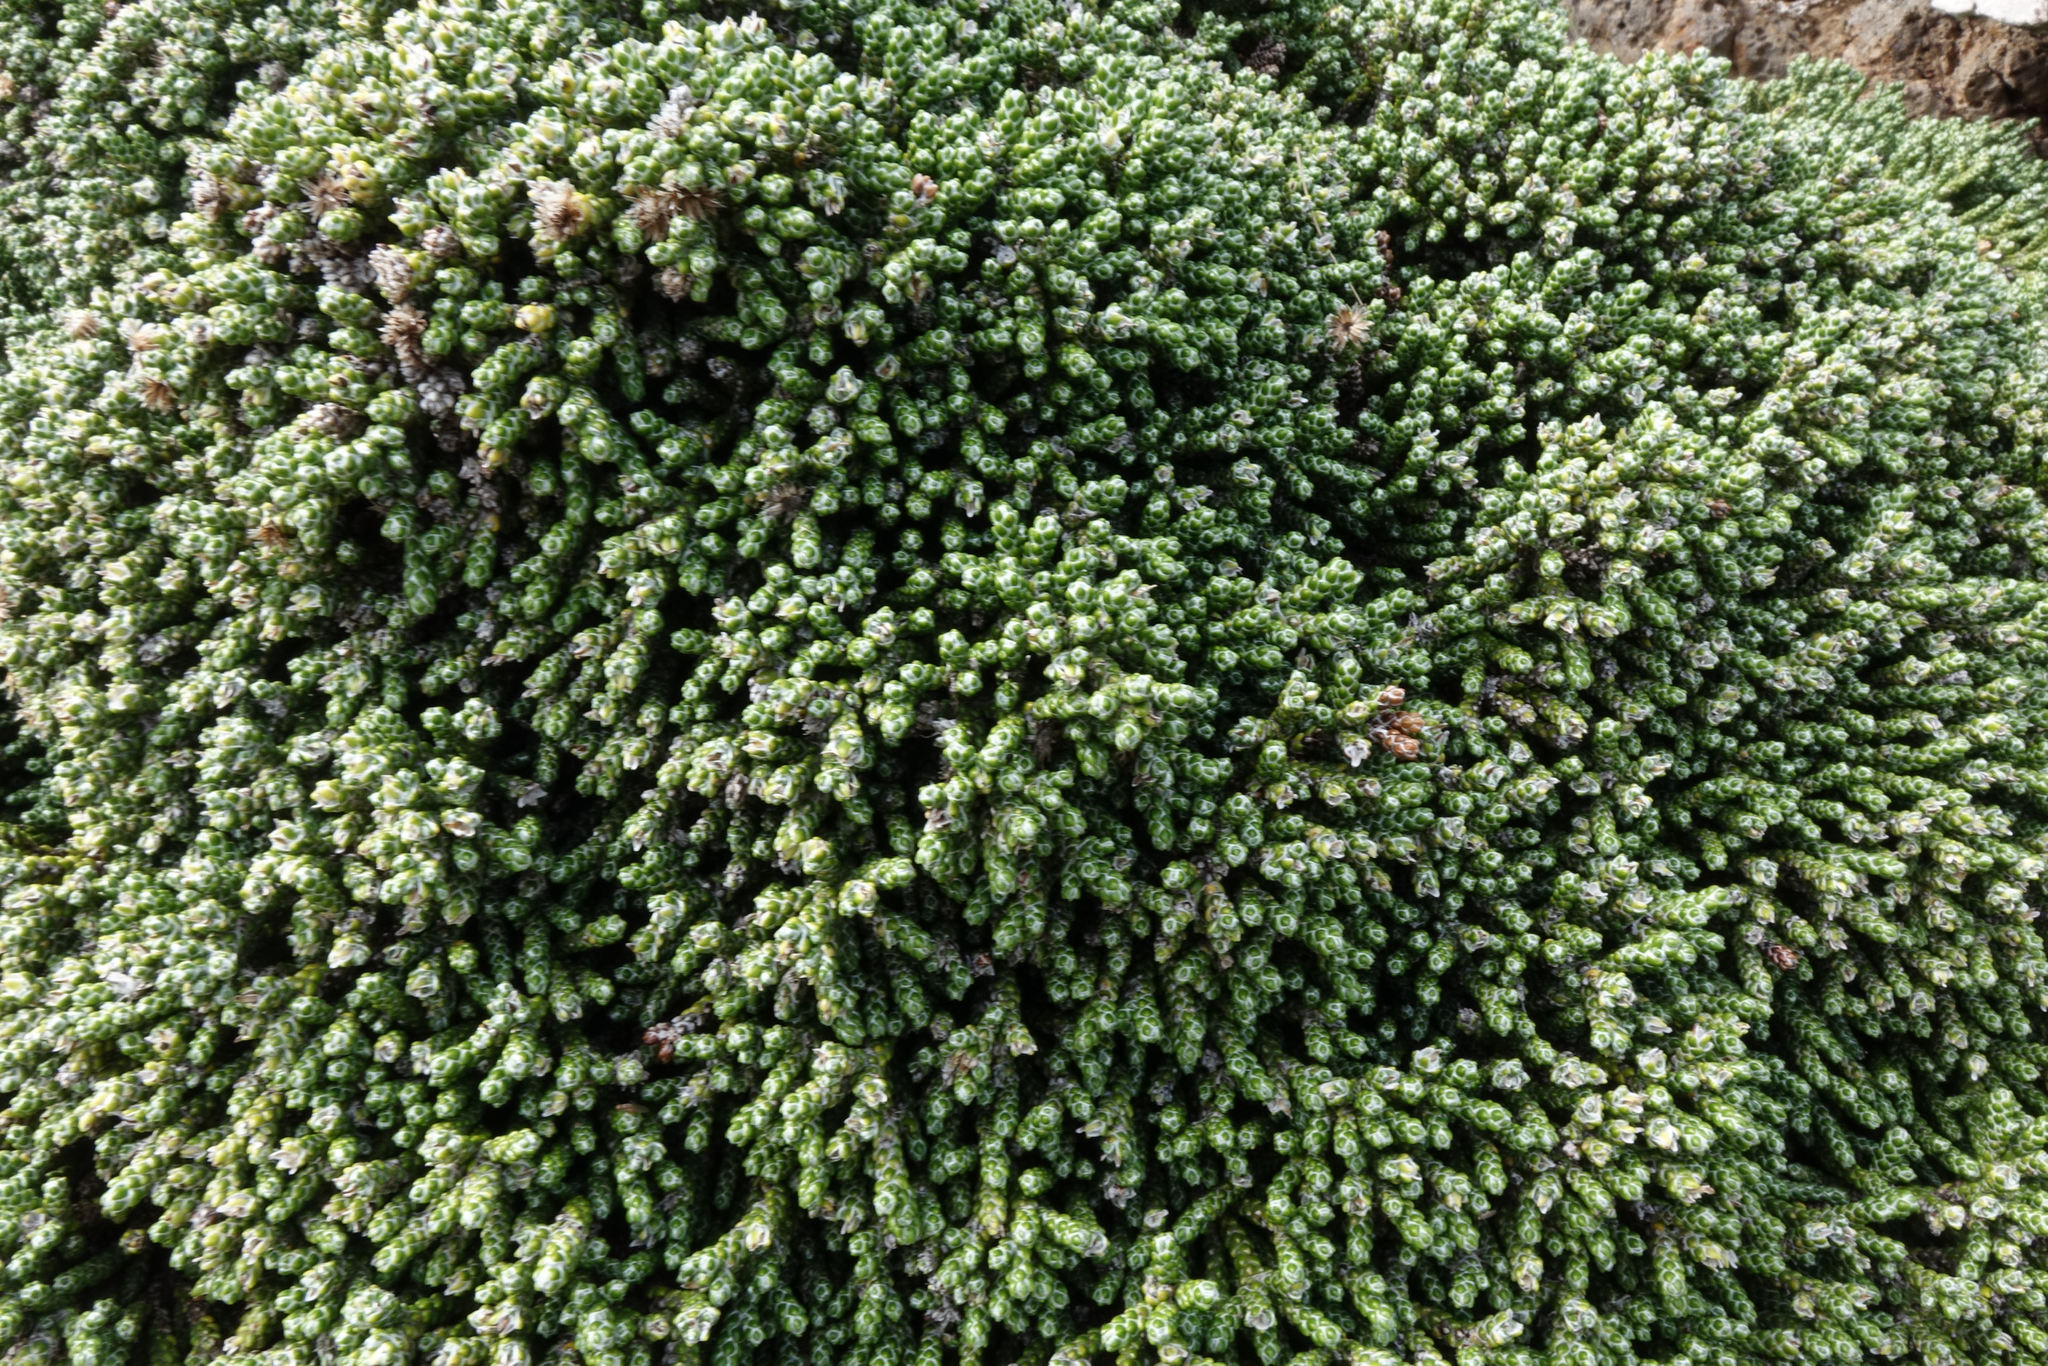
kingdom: Plantae
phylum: Tracheophyta
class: Magnoliopsida
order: Asterales
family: Asteraceae
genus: Ozothamnus
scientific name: Ozothamnus selago
